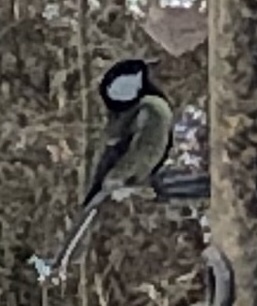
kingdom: Animalia
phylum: Chordata
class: Aves
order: Passeriformes
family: Paridae
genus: Parus
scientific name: Parus major
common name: Great tit
